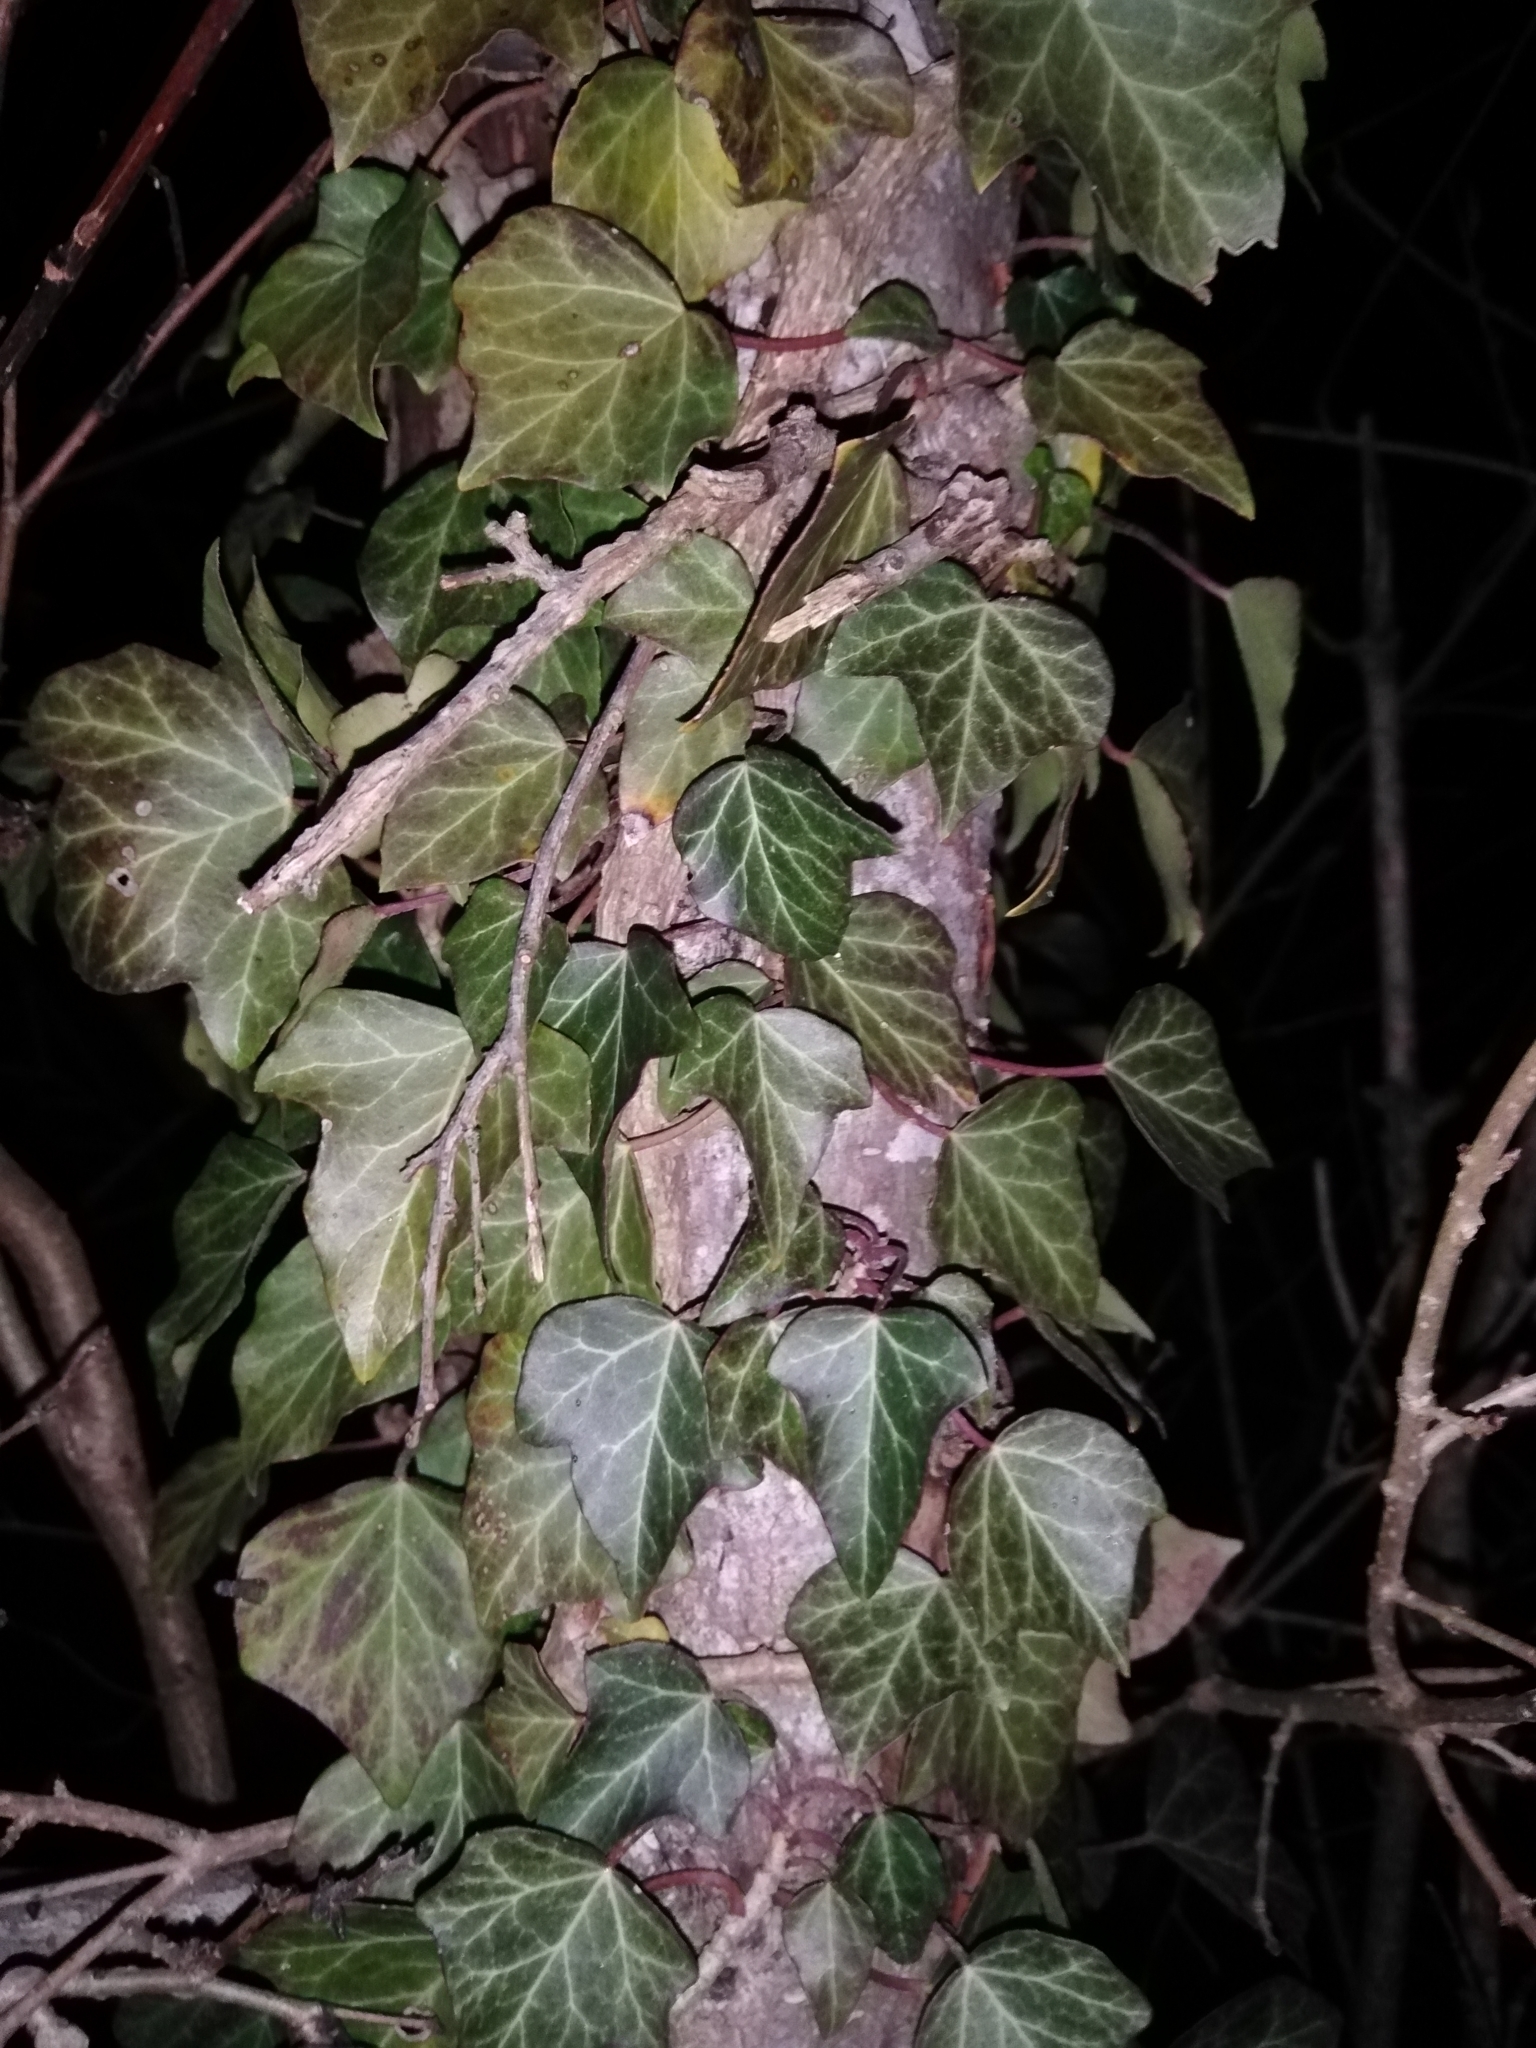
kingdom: Plantae
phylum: Tracheophyta
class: Magnoliopsida
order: Apiales
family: Araliaceae
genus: Hedera
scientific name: Hedera helix
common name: Ivy
